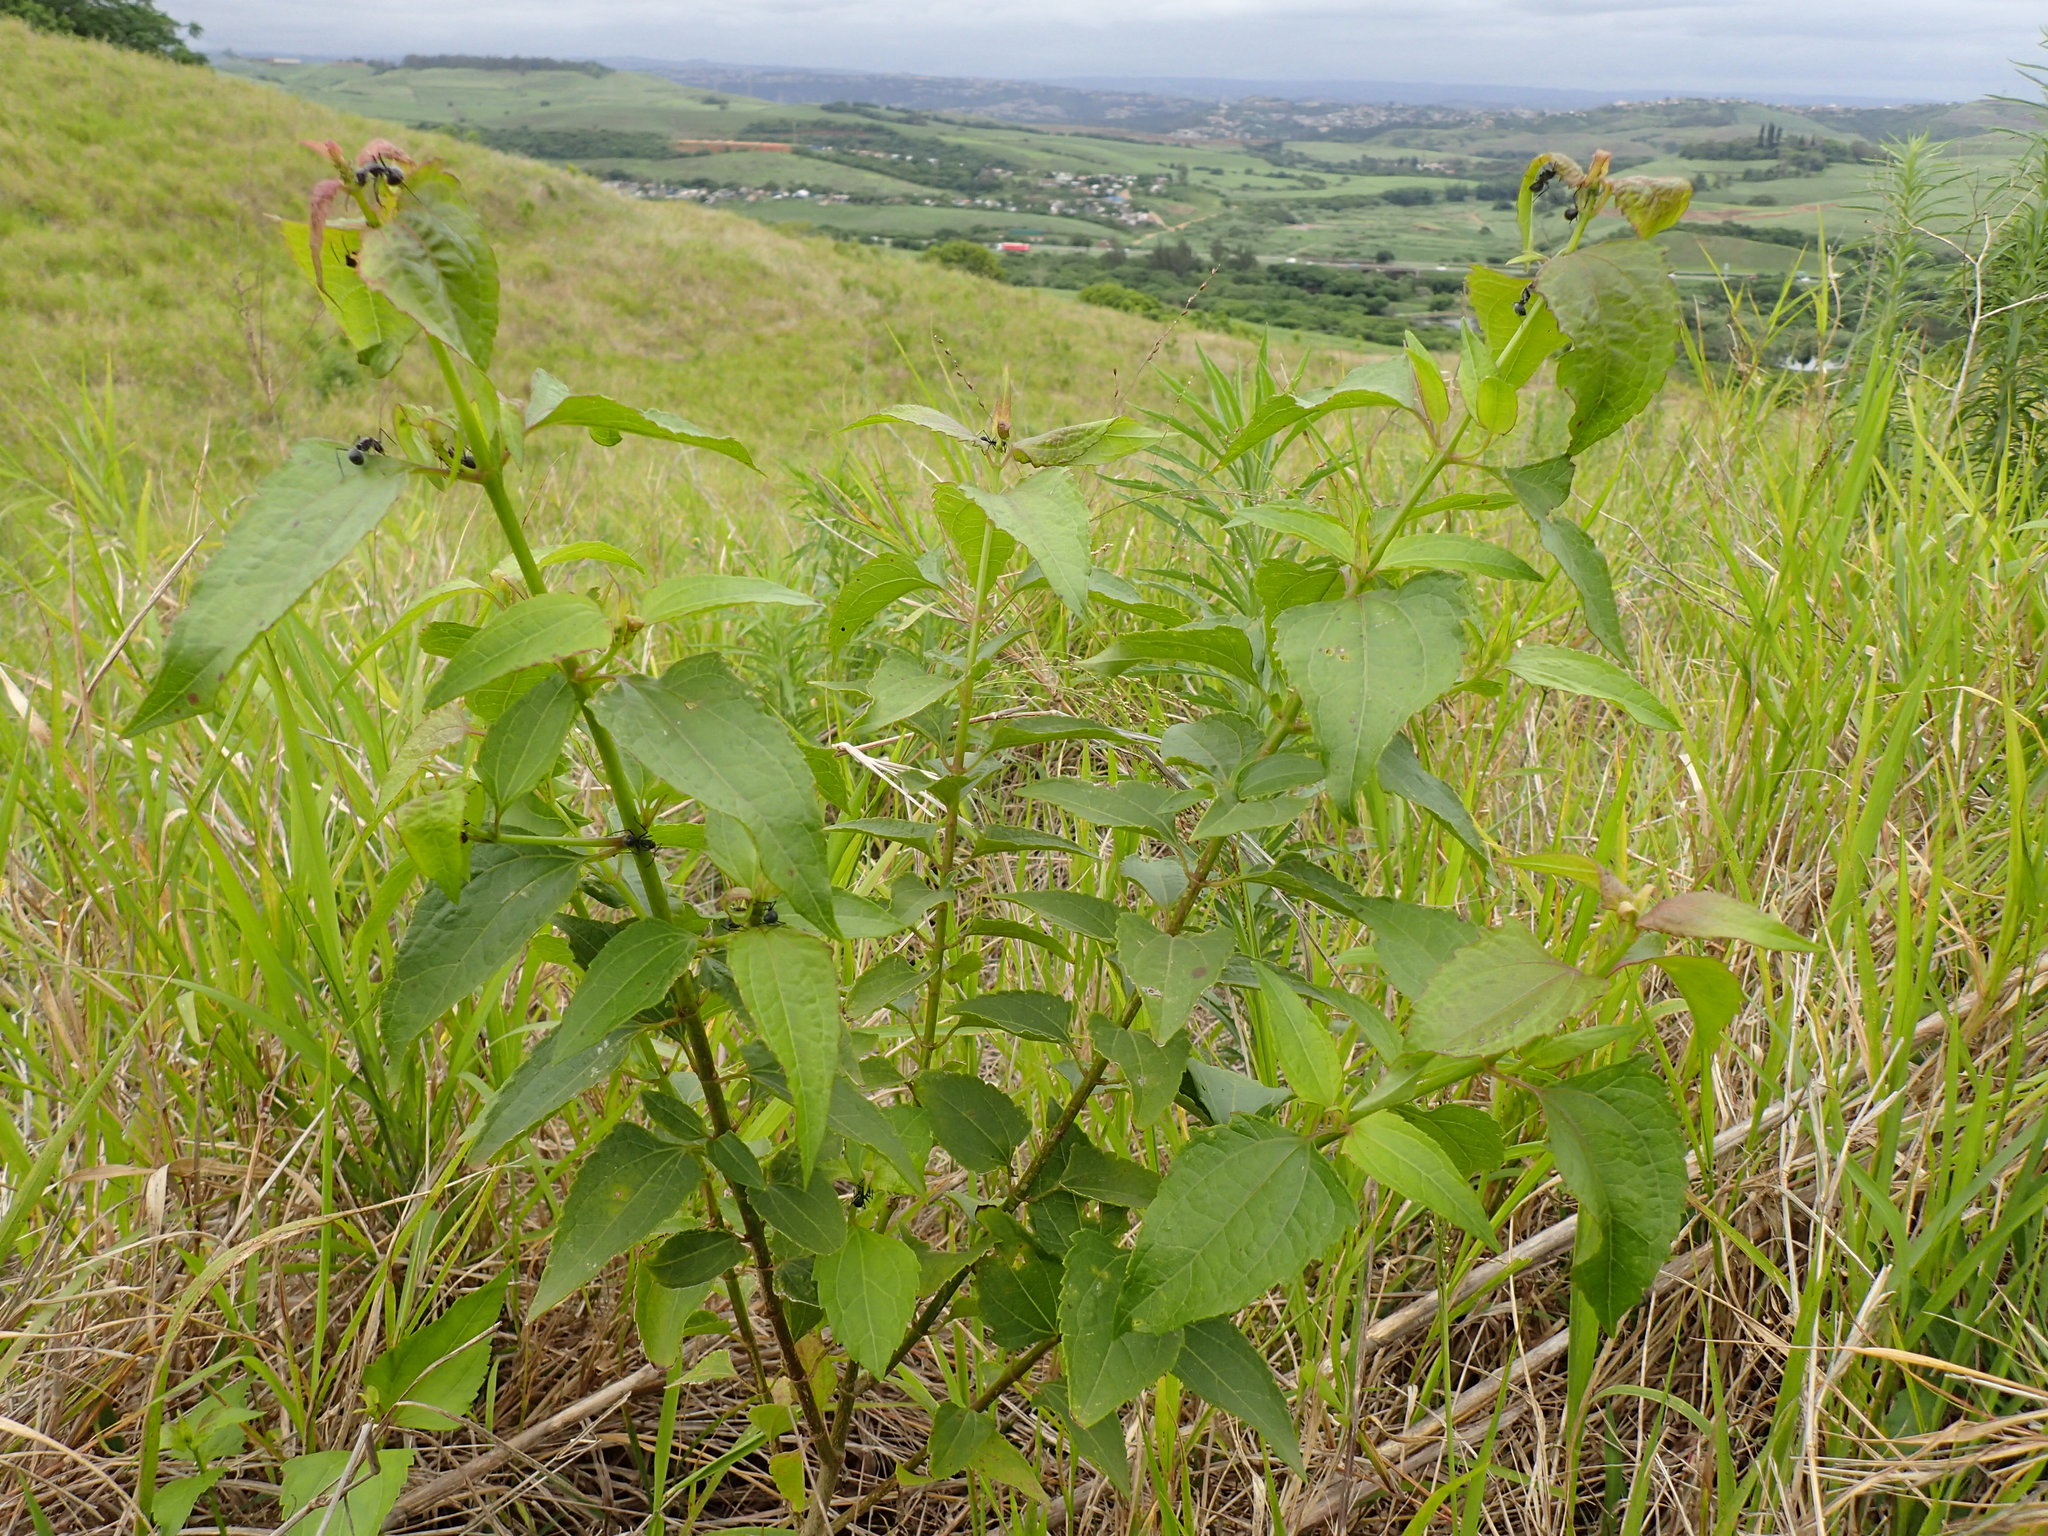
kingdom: Plantae
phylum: Tracheophyta
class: Magnoliopsida
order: Asterales
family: Asteraceae
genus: Chromolaena
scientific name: Chromolaena odorata
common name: Siamweed
